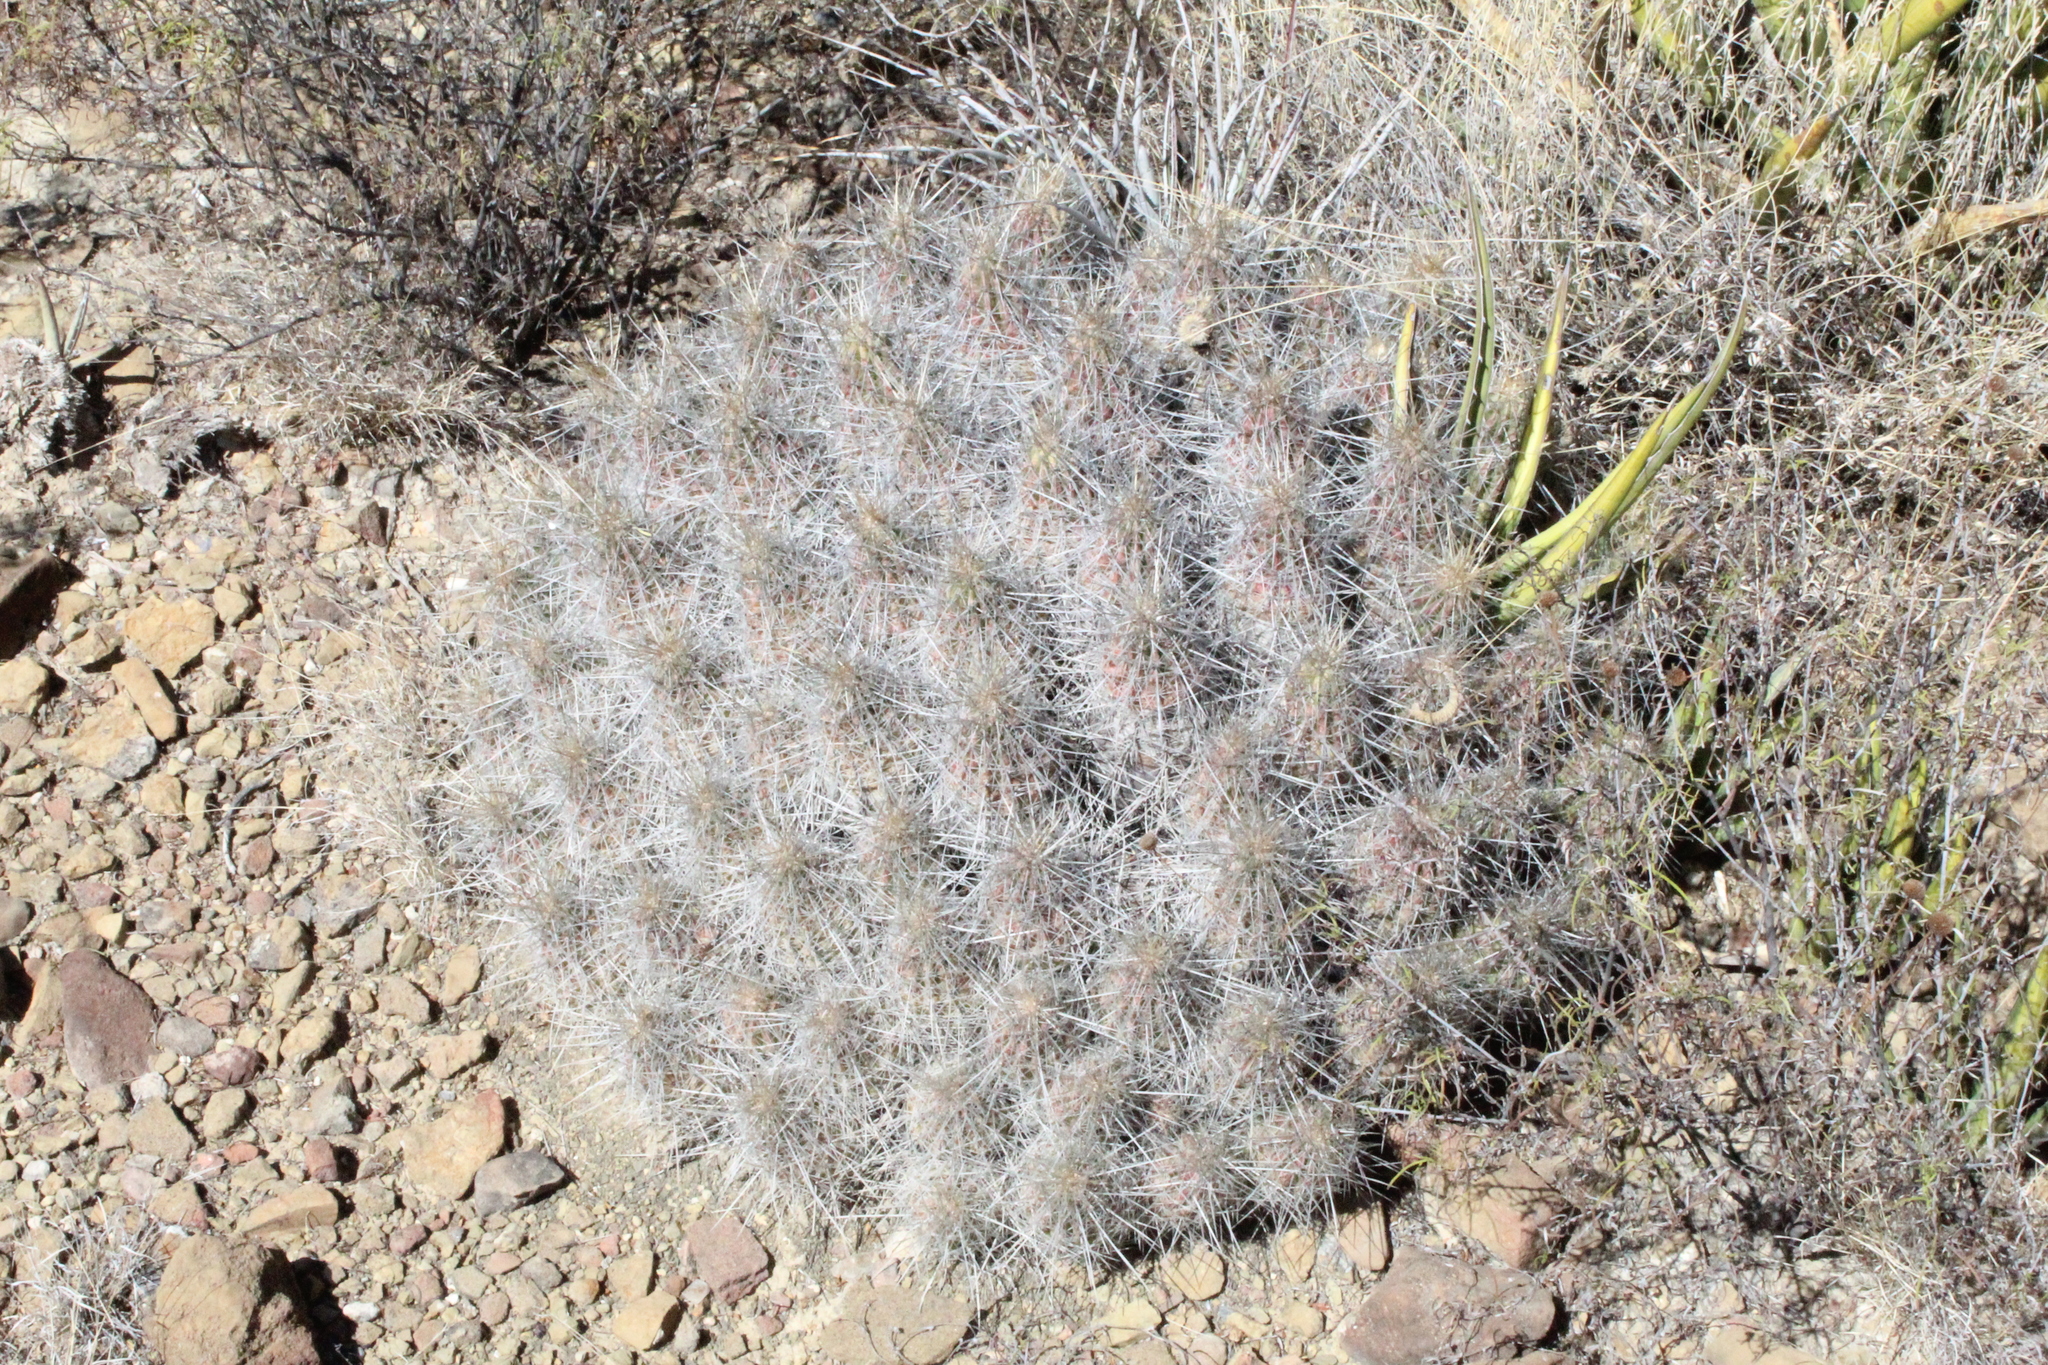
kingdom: Plantae
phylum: Tracheophyta
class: Magnoliopsida
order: Caryophyllales
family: Cactaceae
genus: Echinocereus
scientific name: Echinocereus stramineus
